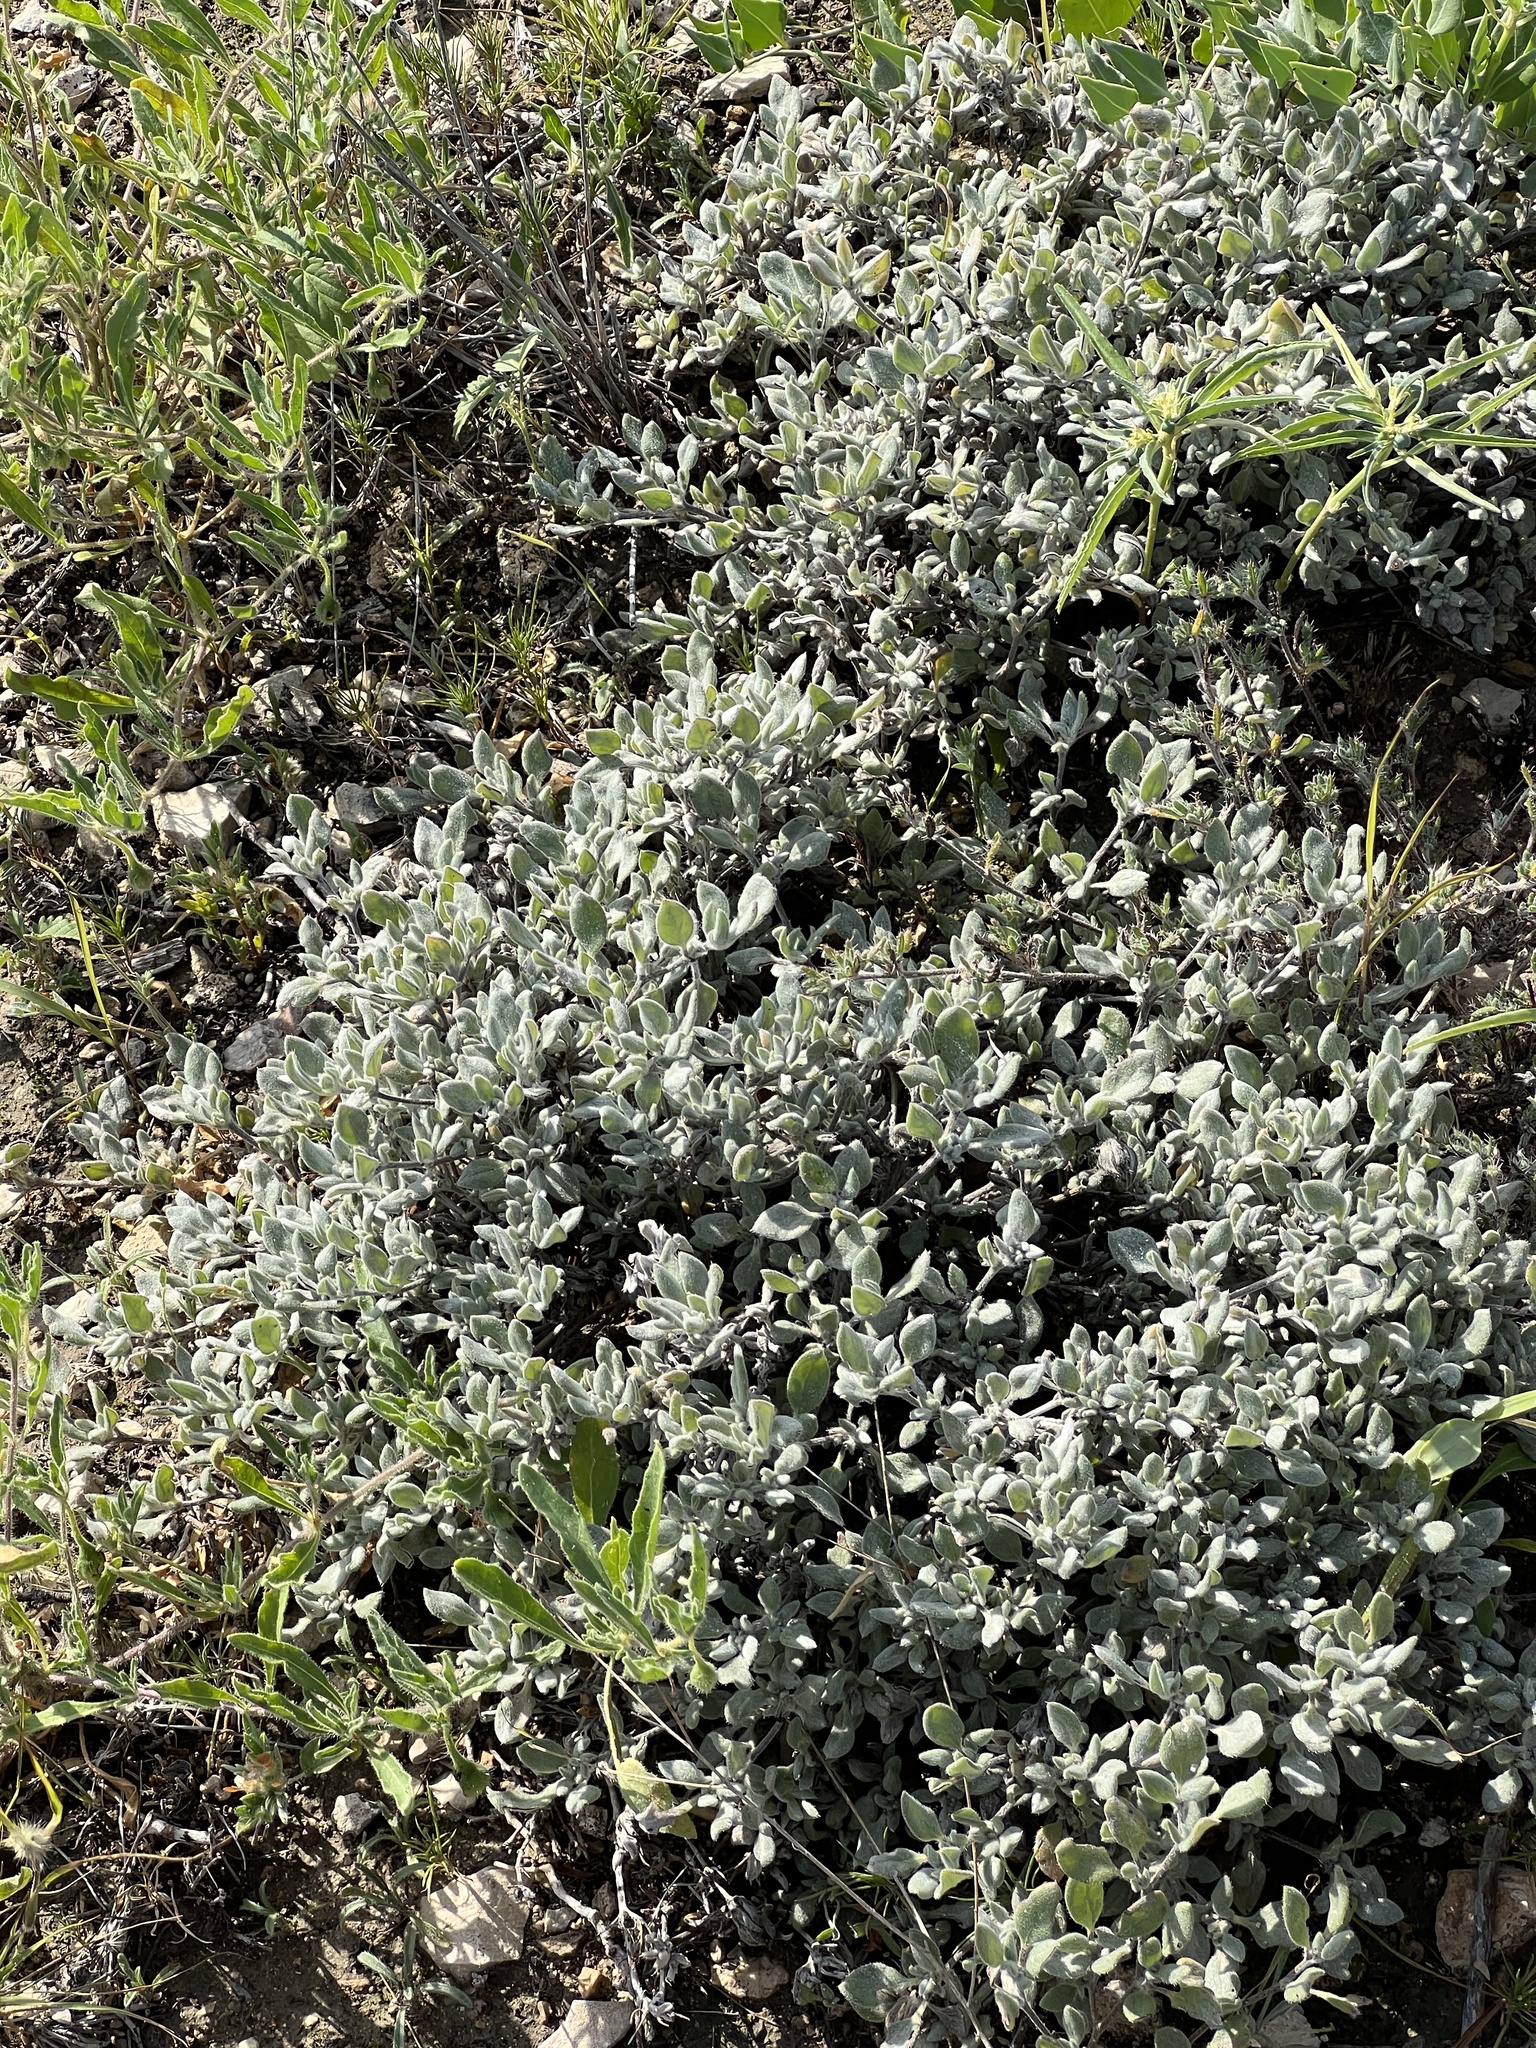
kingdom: Plantae
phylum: Tracheophyta
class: Magnoliopsida
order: Boraginales
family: Ehretiaceae
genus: Tiquilia
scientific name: Tiquilia canescens
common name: Hairy tiquilia
